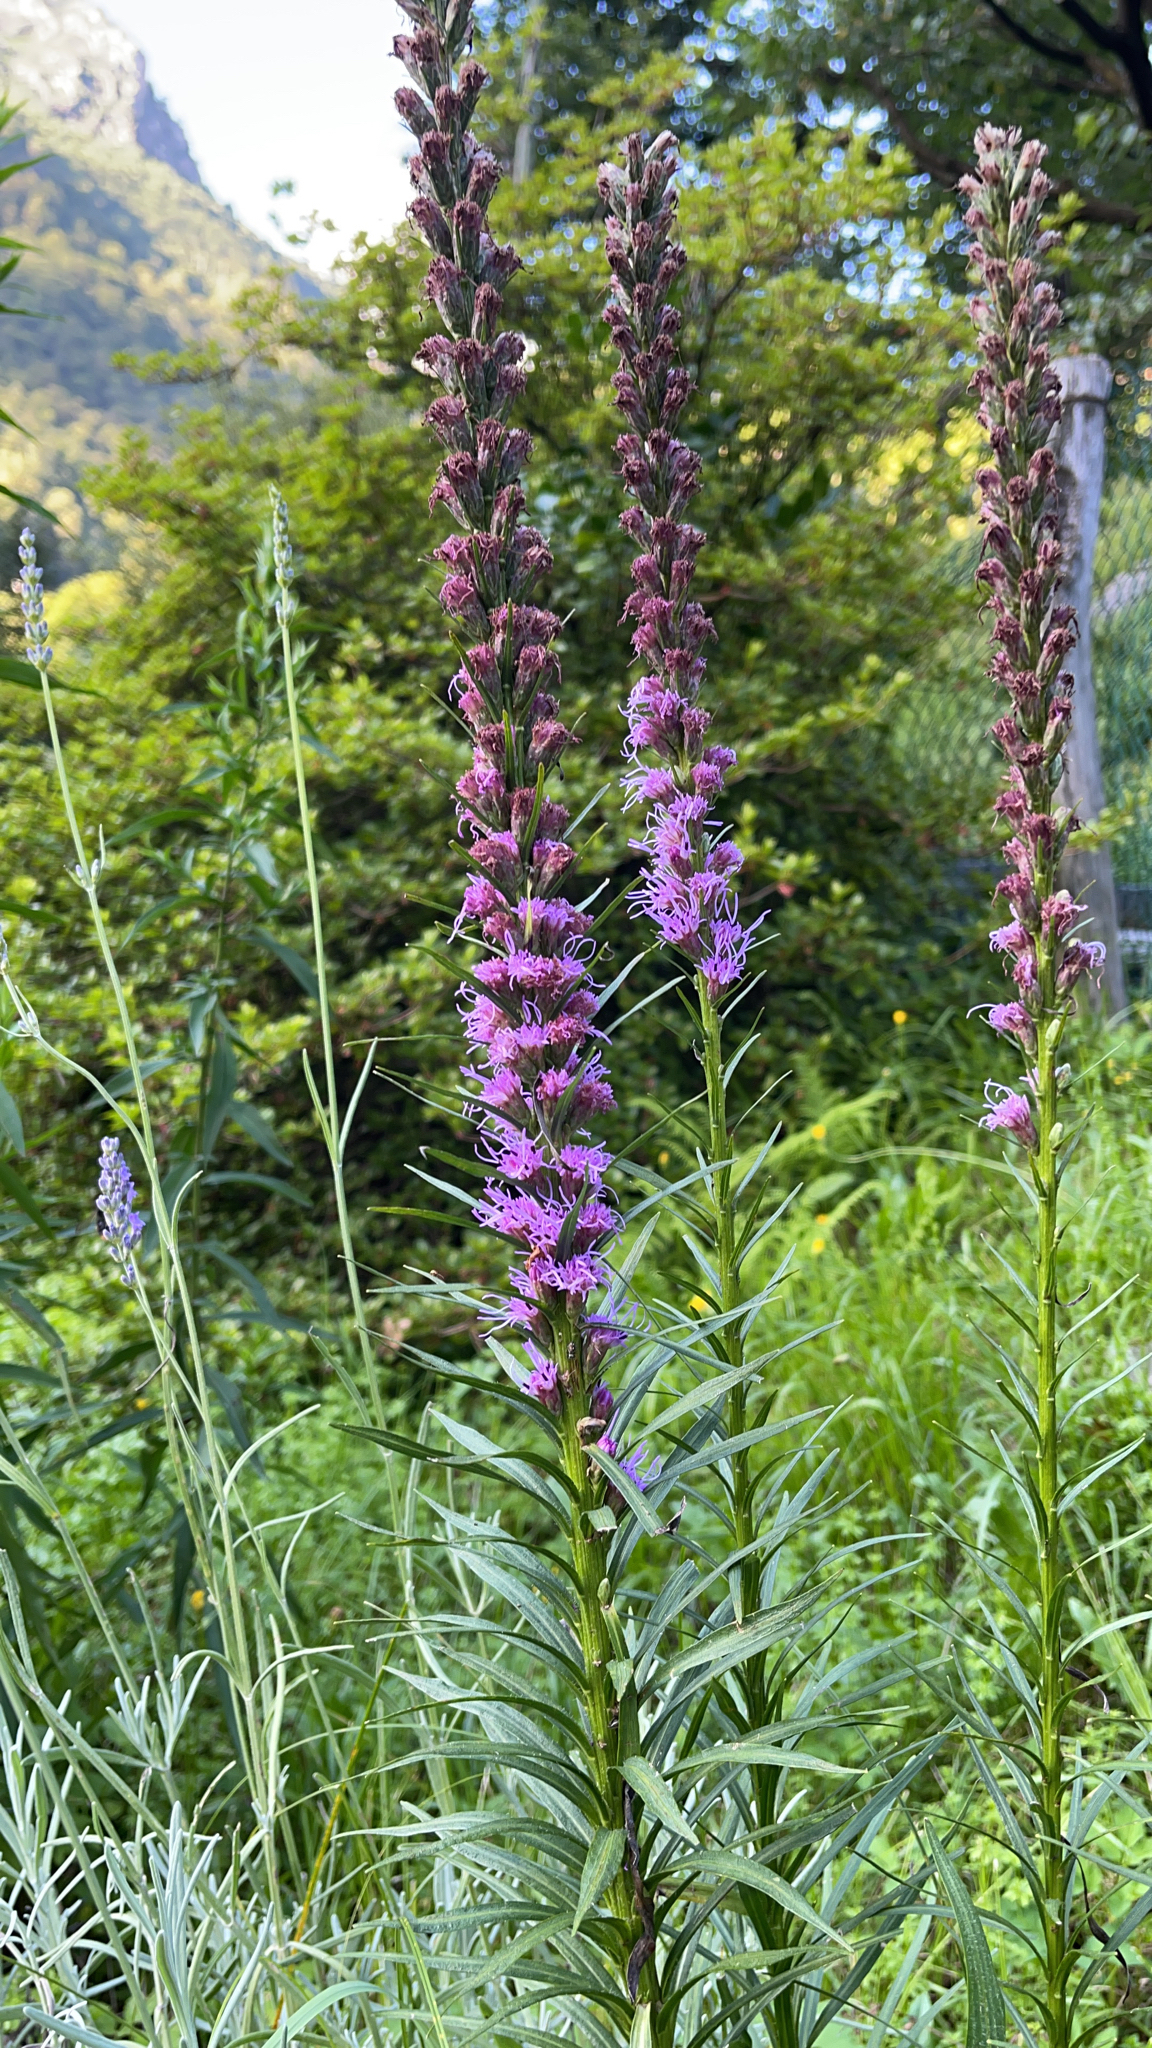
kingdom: Plantae
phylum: Tracheophyta
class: Magnoliopsida
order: Myrtales
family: Lythraceae
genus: Lythrum
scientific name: Lythrum salicaria
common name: Purple loosestrife
